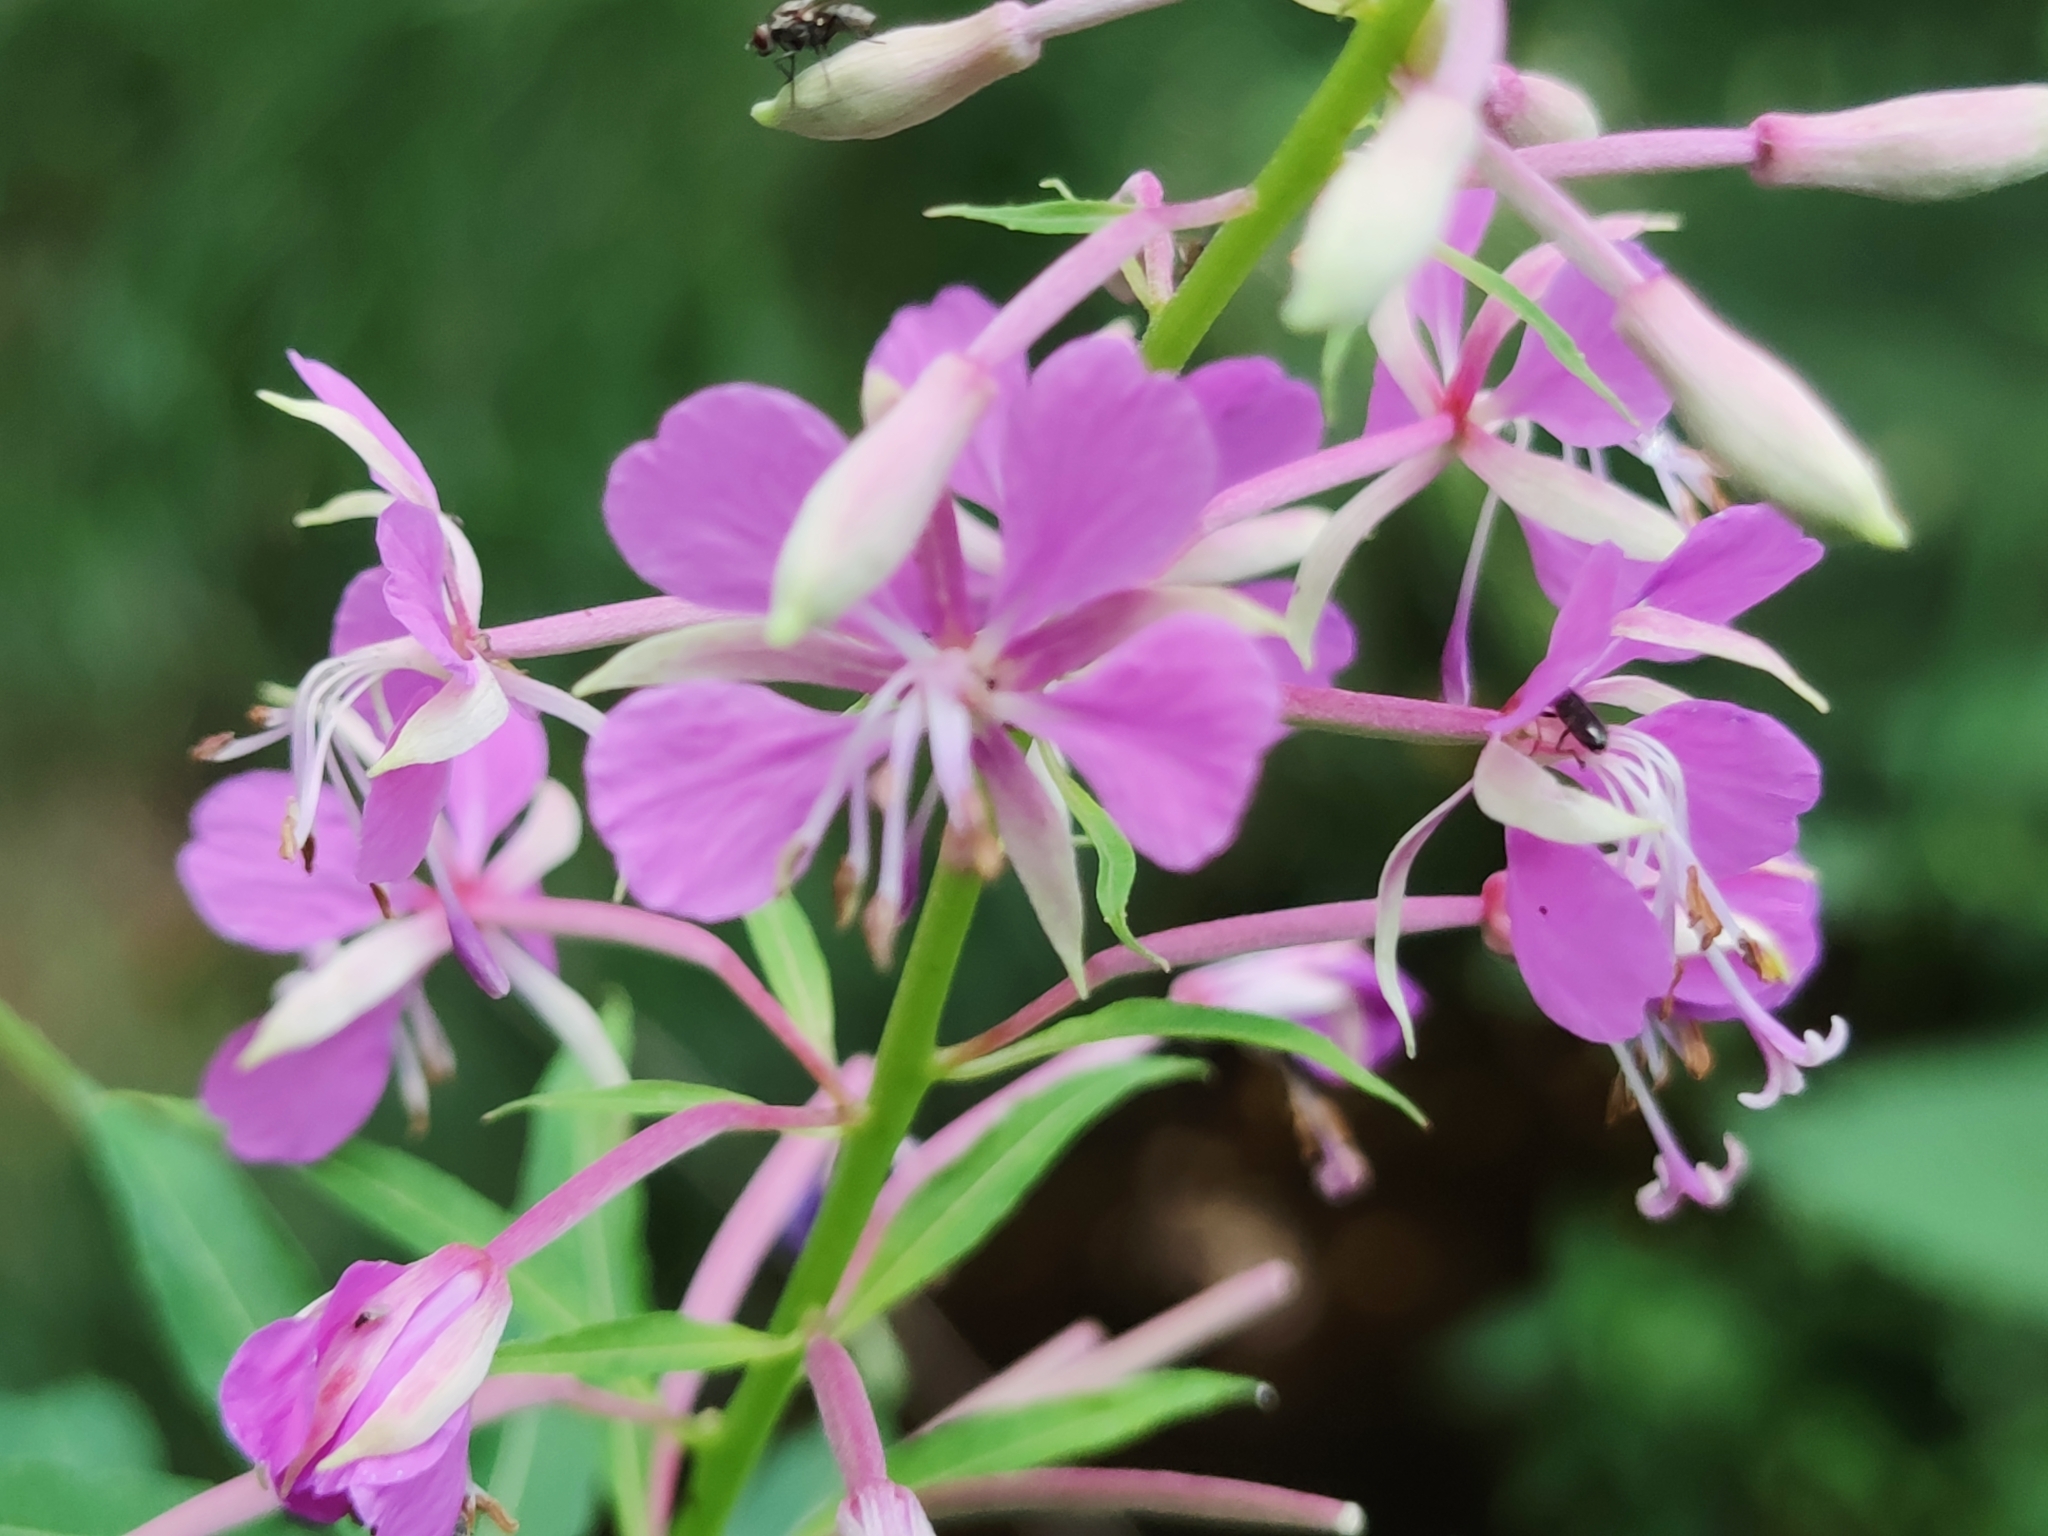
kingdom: Plantae
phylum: Tracheophyta
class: Magnoliopsida
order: Myrtales
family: Onagraceae
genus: Chamaenerion
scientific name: Chamaenerion angustifolium
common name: Fireweed
